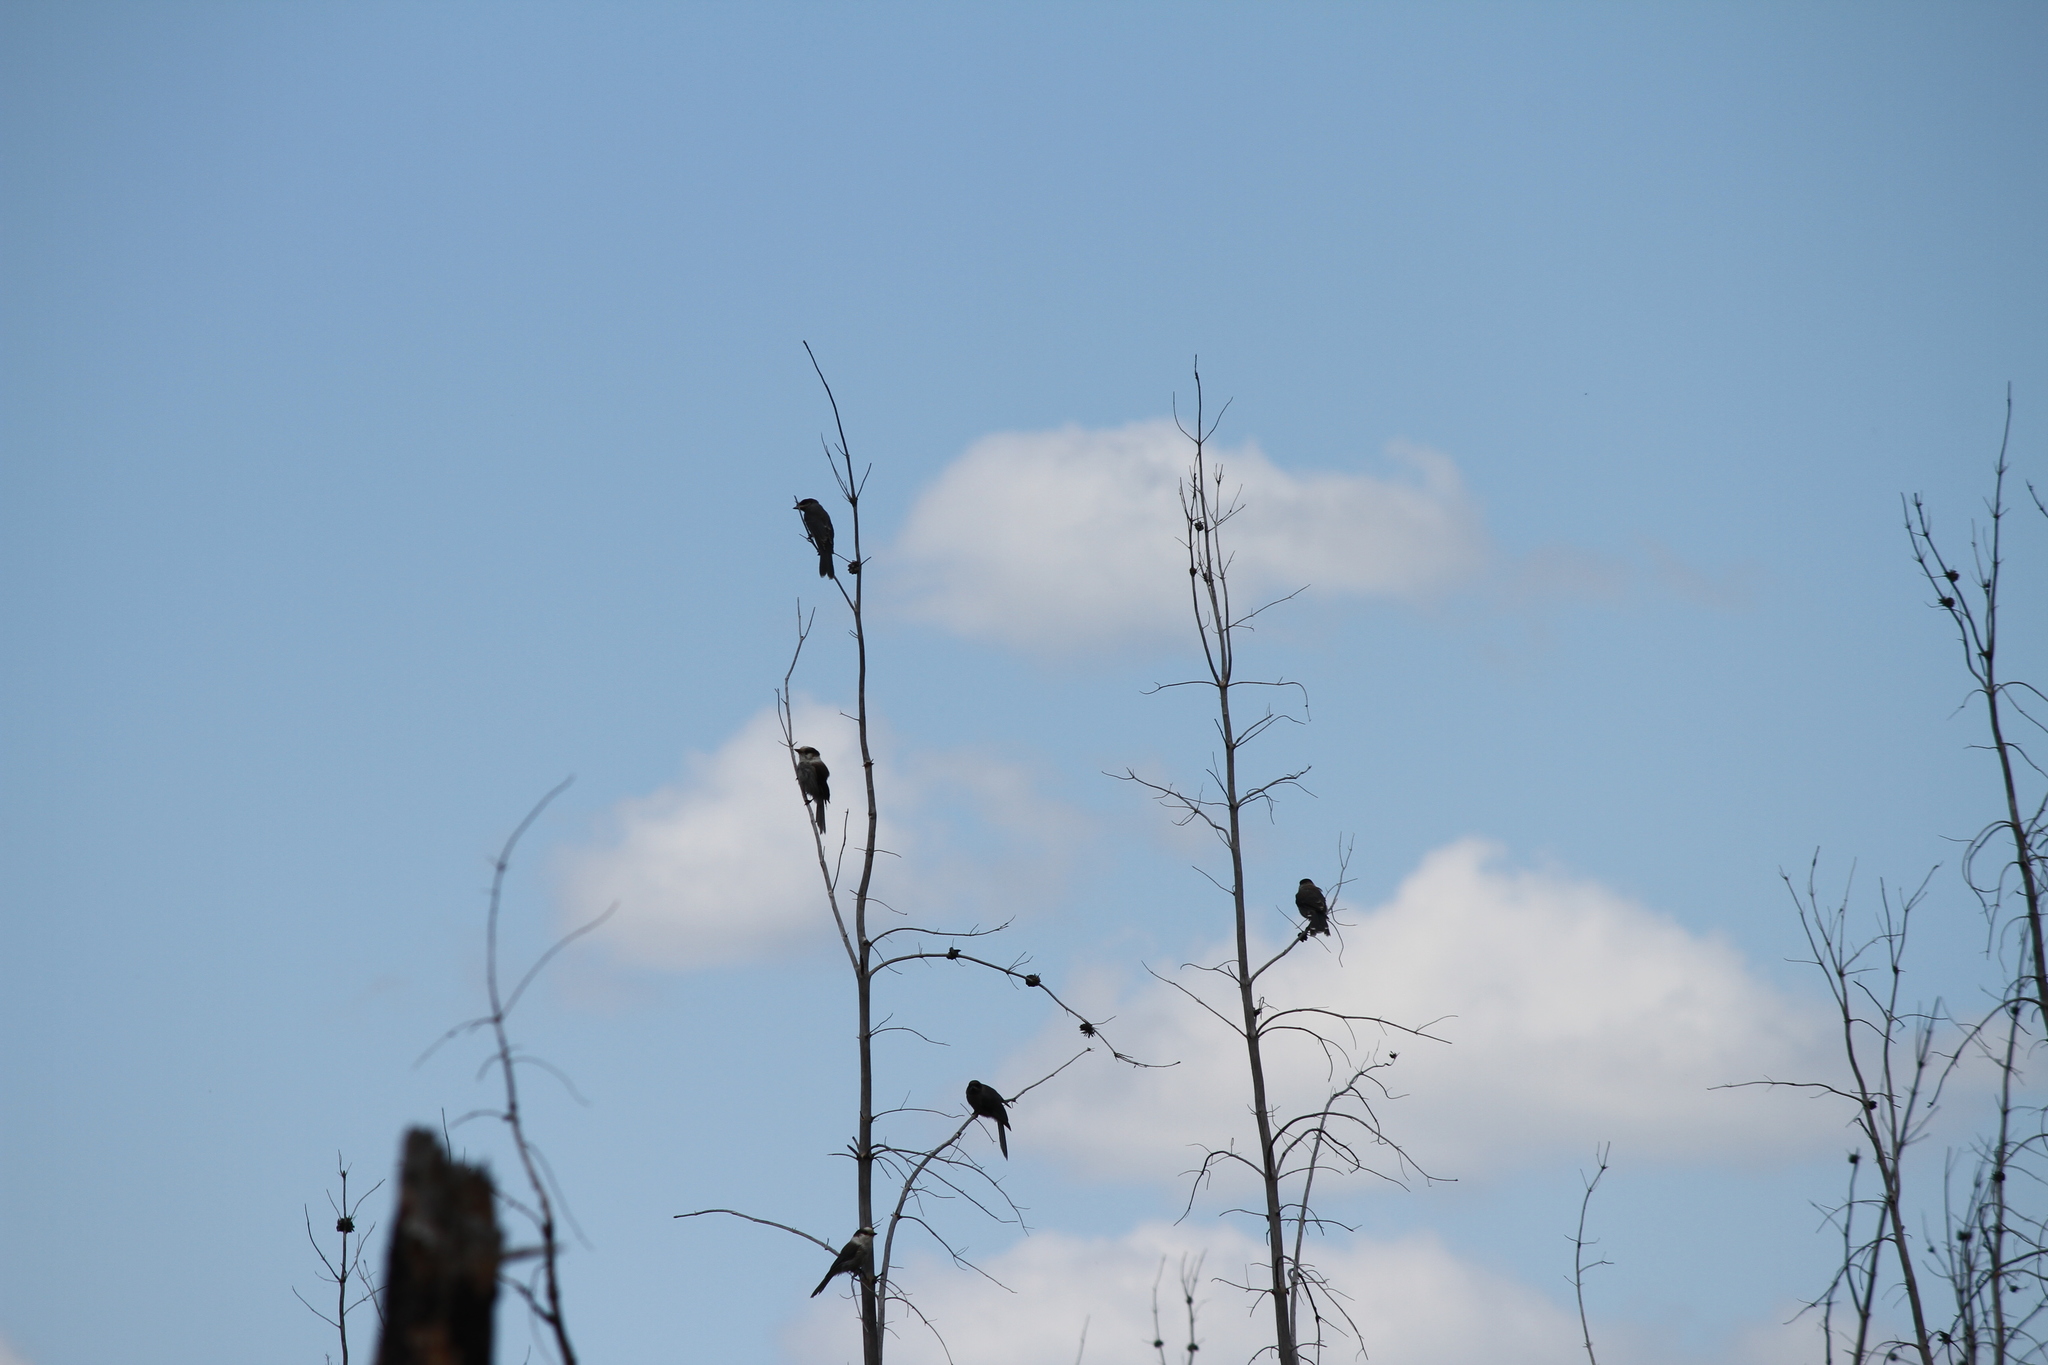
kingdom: Animalia
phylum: Chordata
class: Aves
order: Passeriformes
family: Corvidae
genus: Perisoreus
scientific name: Perisoreus canadensis
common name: Gray jay
